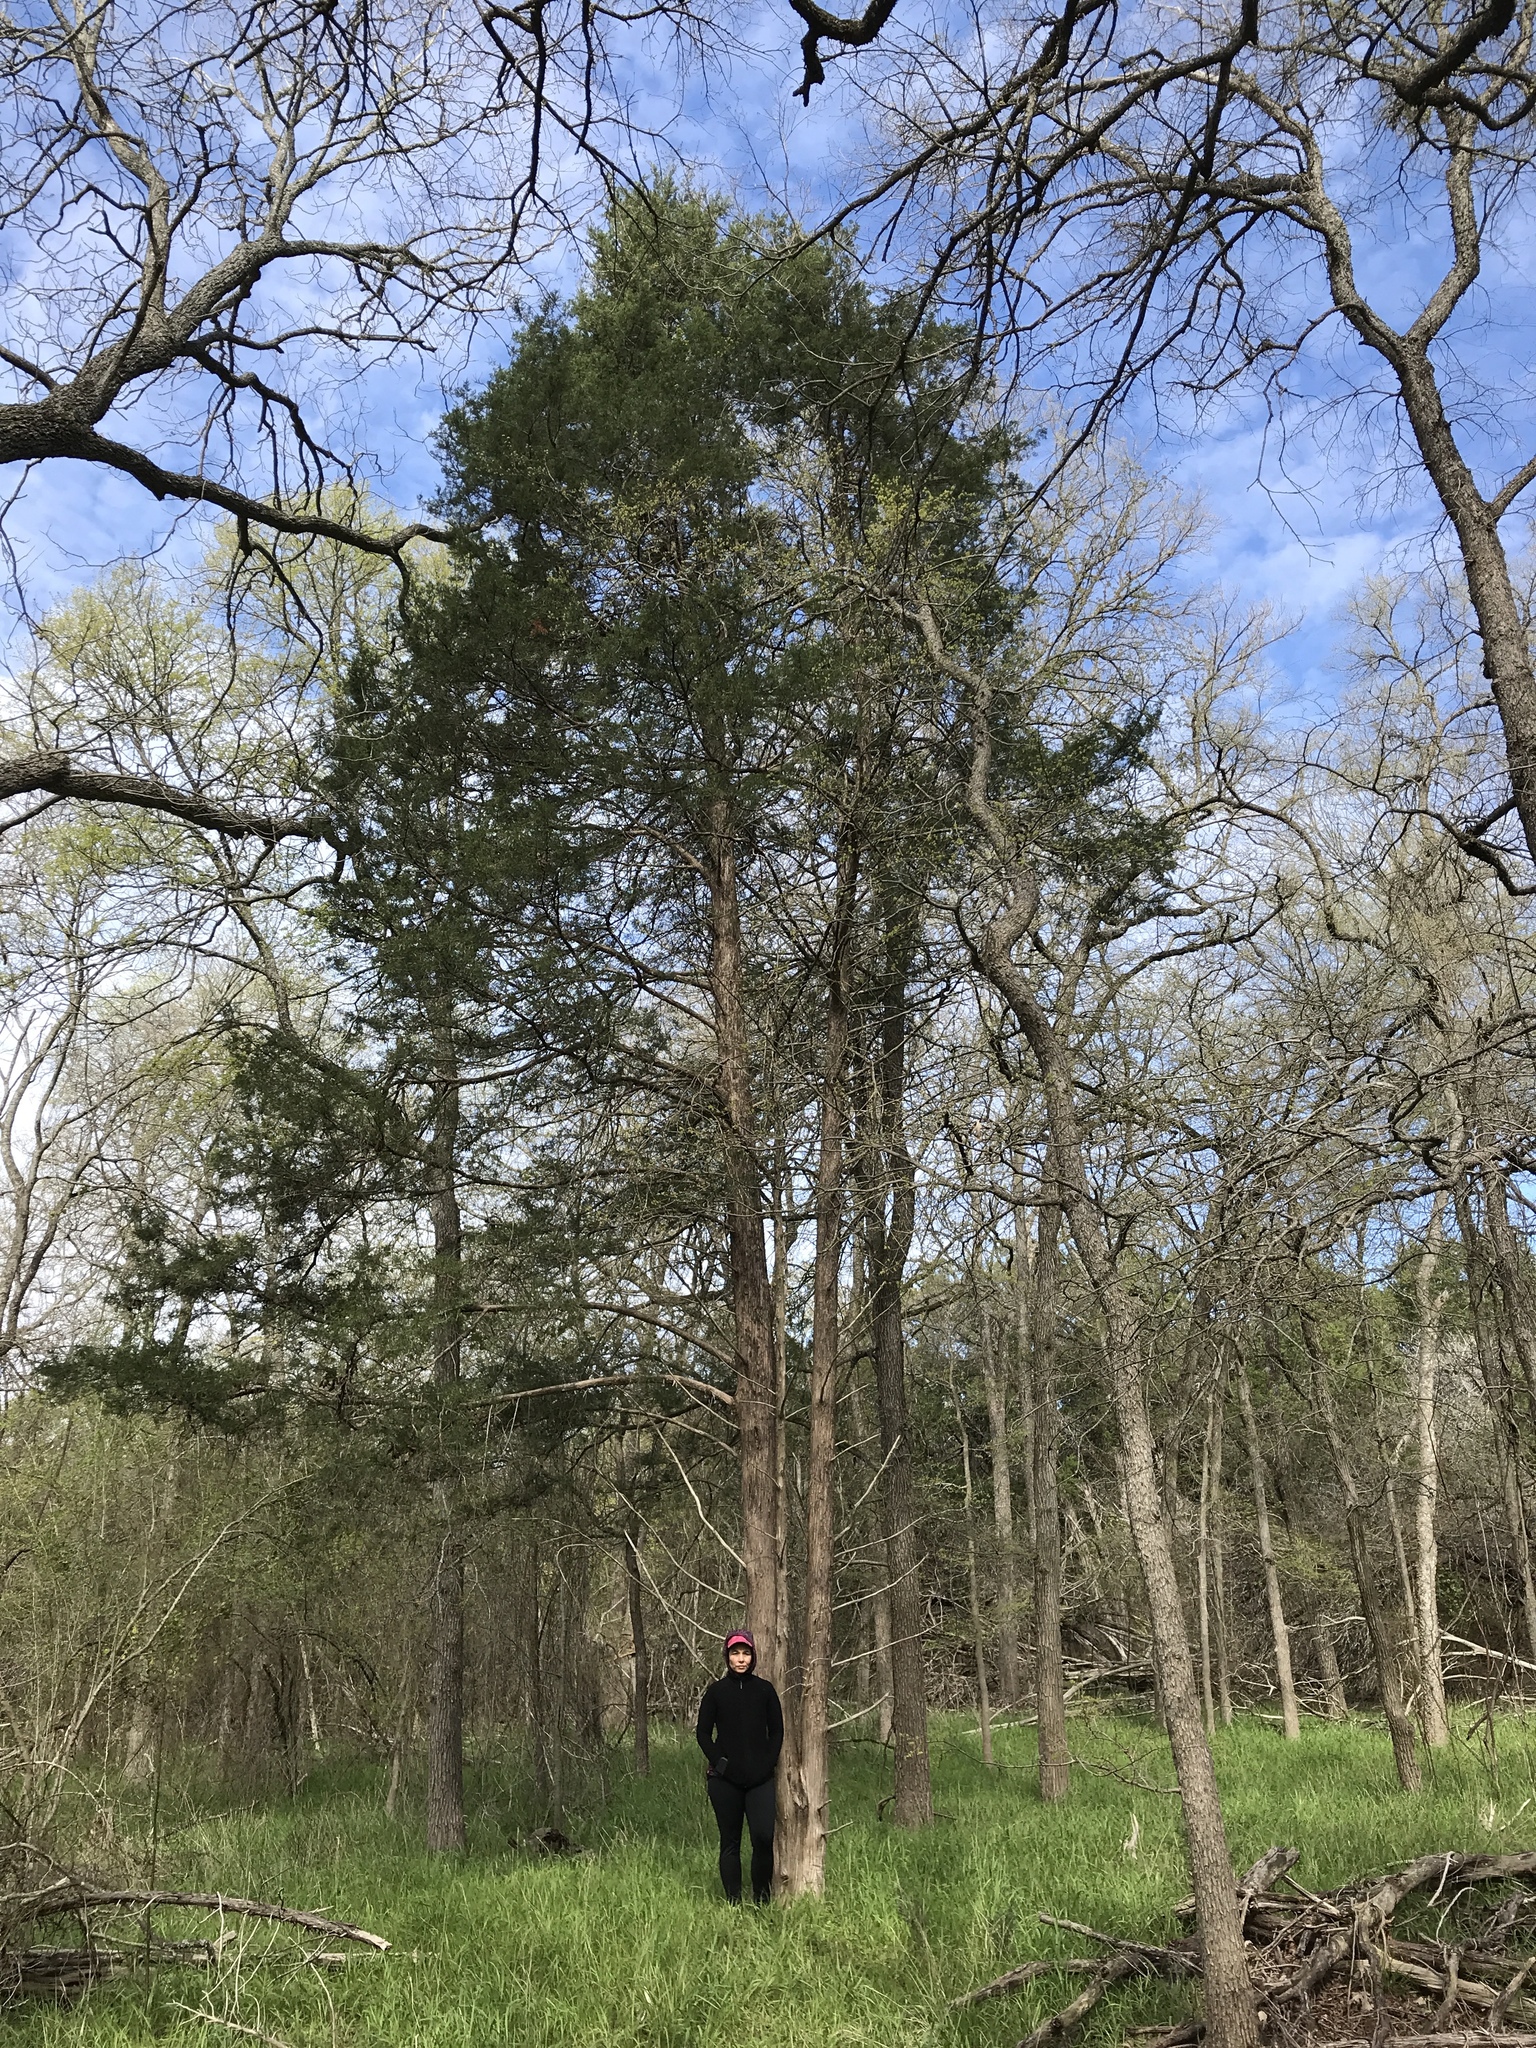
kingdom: Plantae
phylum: Tracheophyta
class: Pinopsida
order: Pinales
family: Cupressaceae
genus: Juniperus
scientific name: Juniperus virginiana
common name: Red juniper
